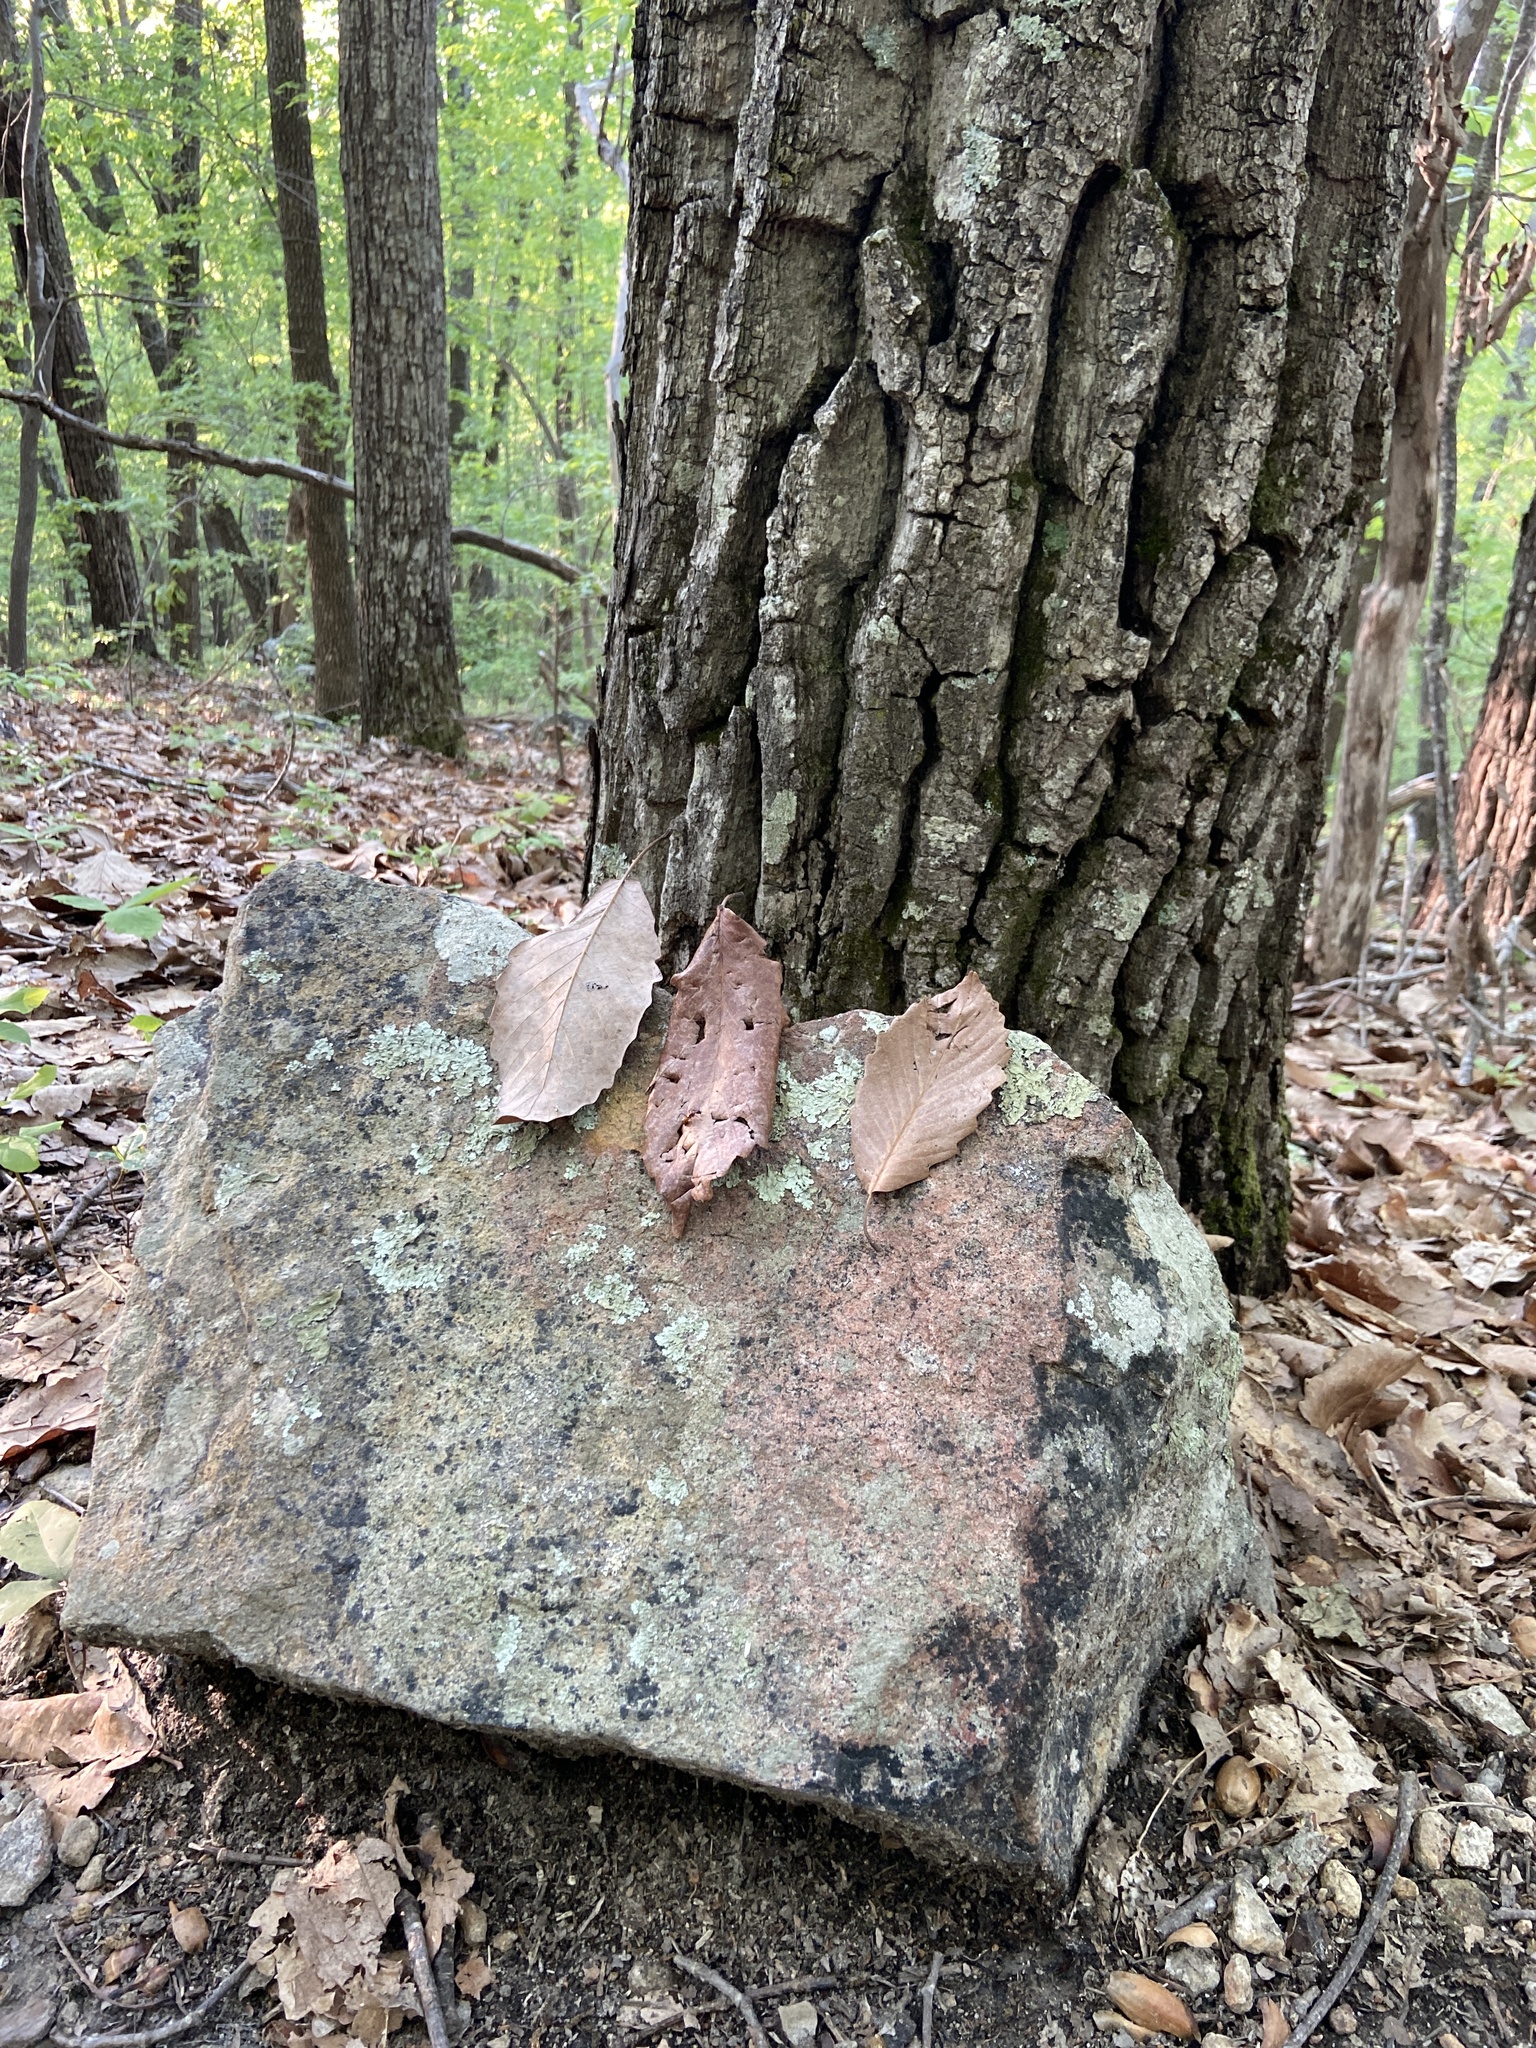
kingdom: Plantae
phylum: Tracheophyta
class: Magnoliopsida
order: Fagales
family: Fagaceae
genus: Quercus
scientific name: Quercus montana
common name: Chestnut oak
